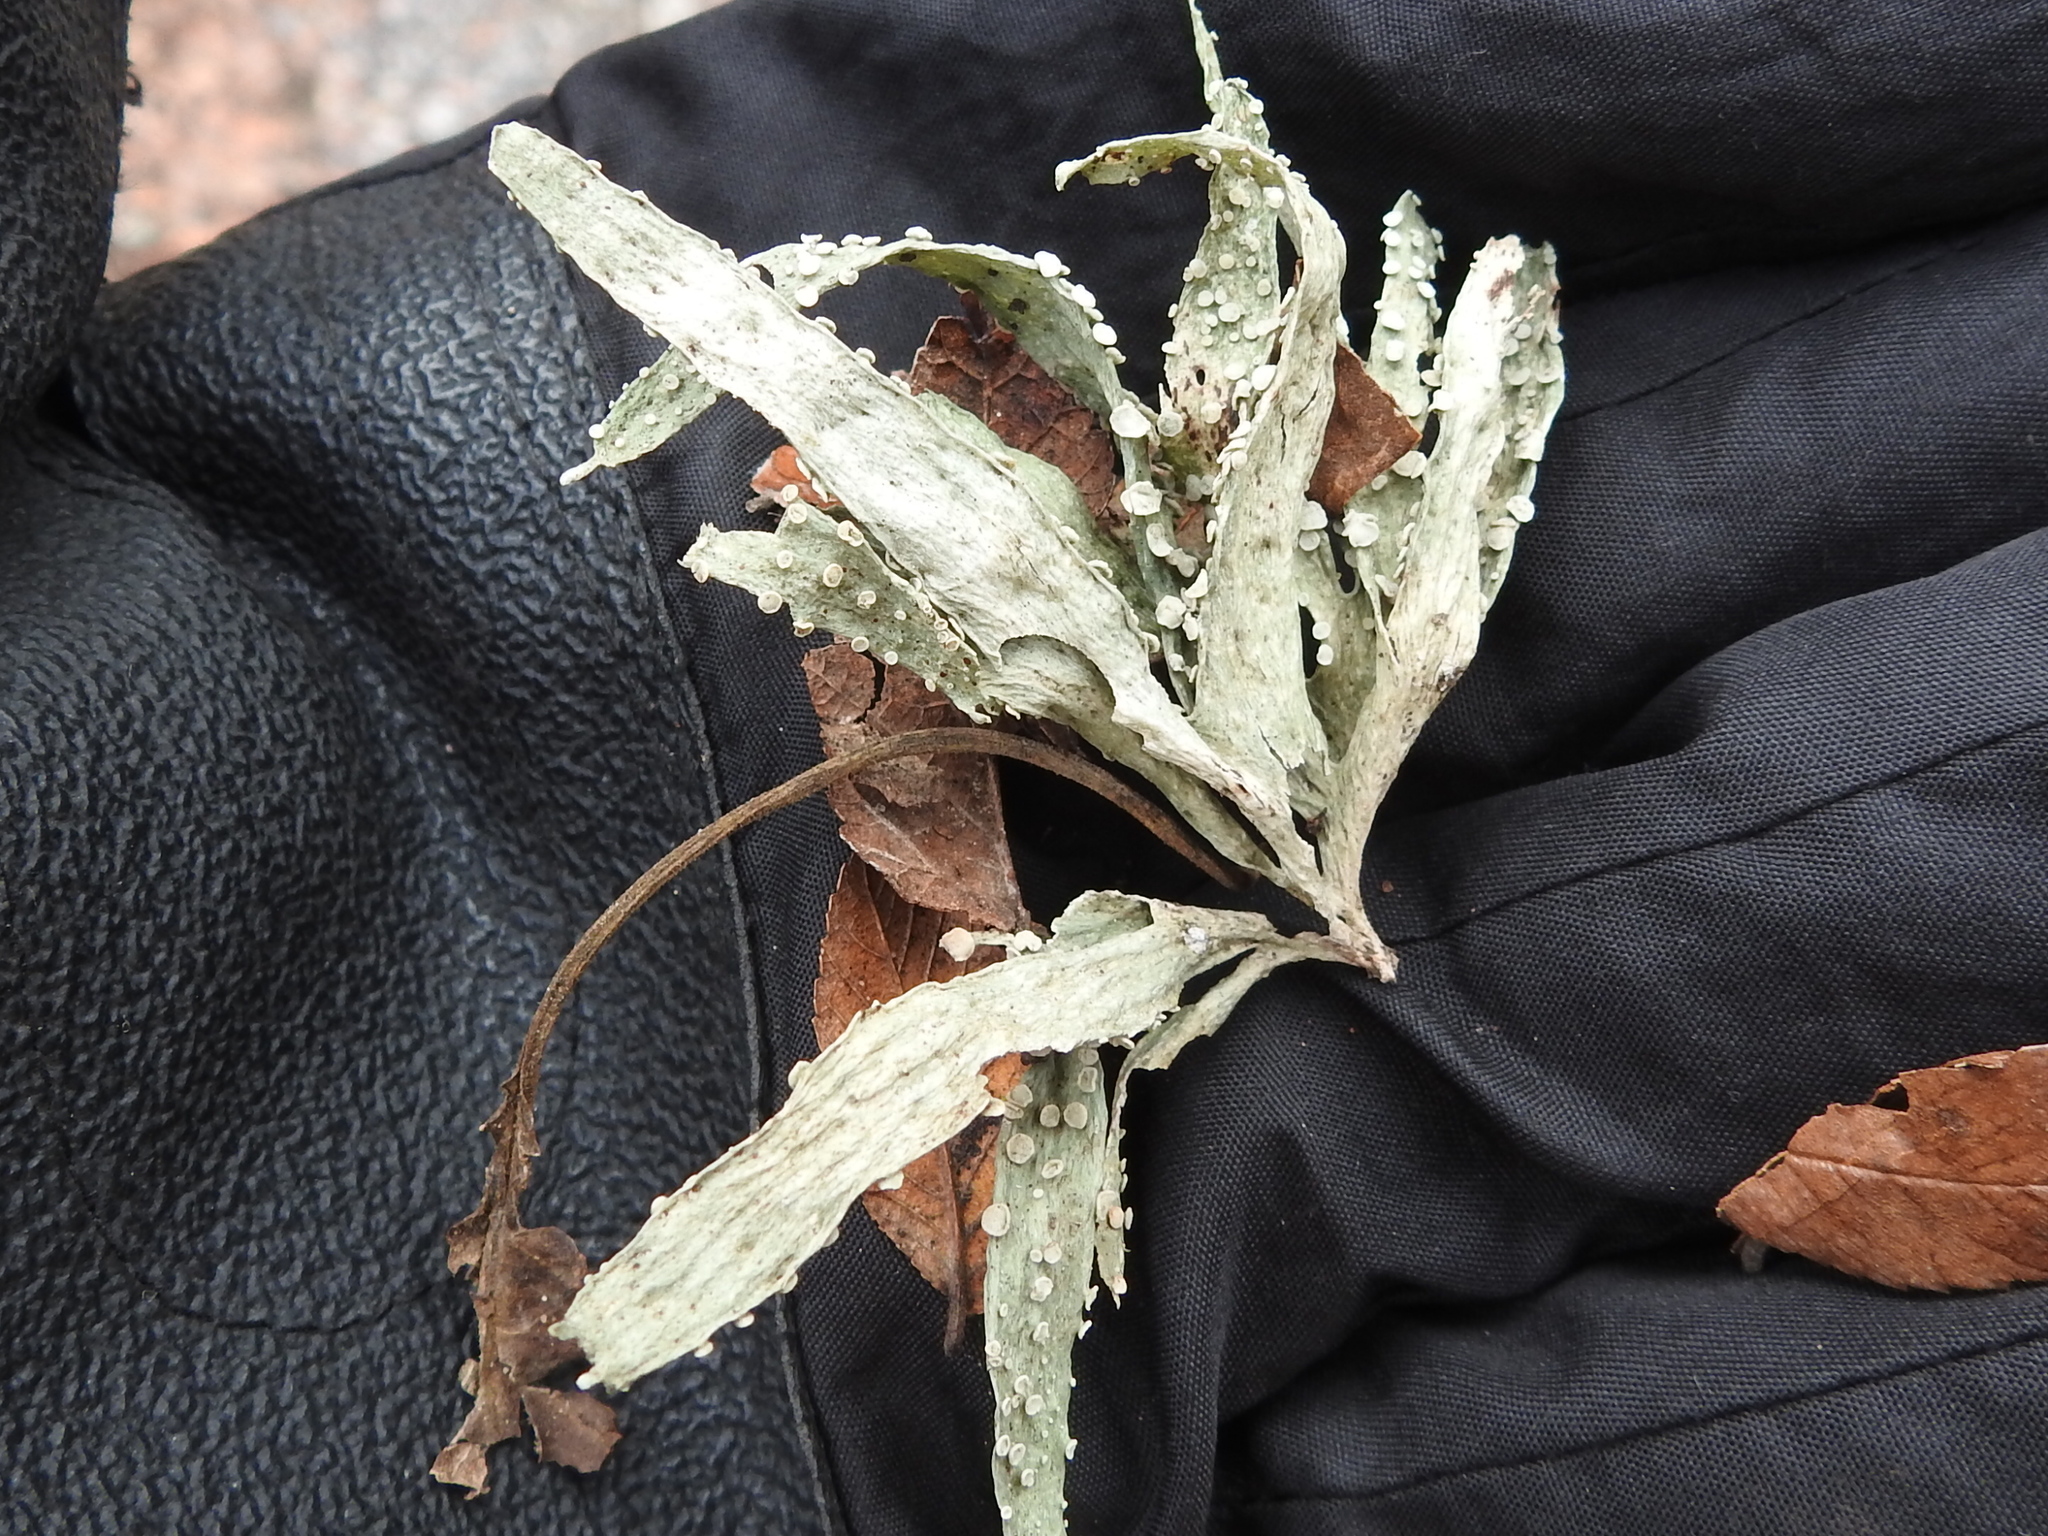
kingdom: Fungi
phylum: Ascomycota
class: Lecanoromycetes
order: Lecanorales
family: Ramalinaceae
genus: Ramalina
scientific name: Ramalina celastri
